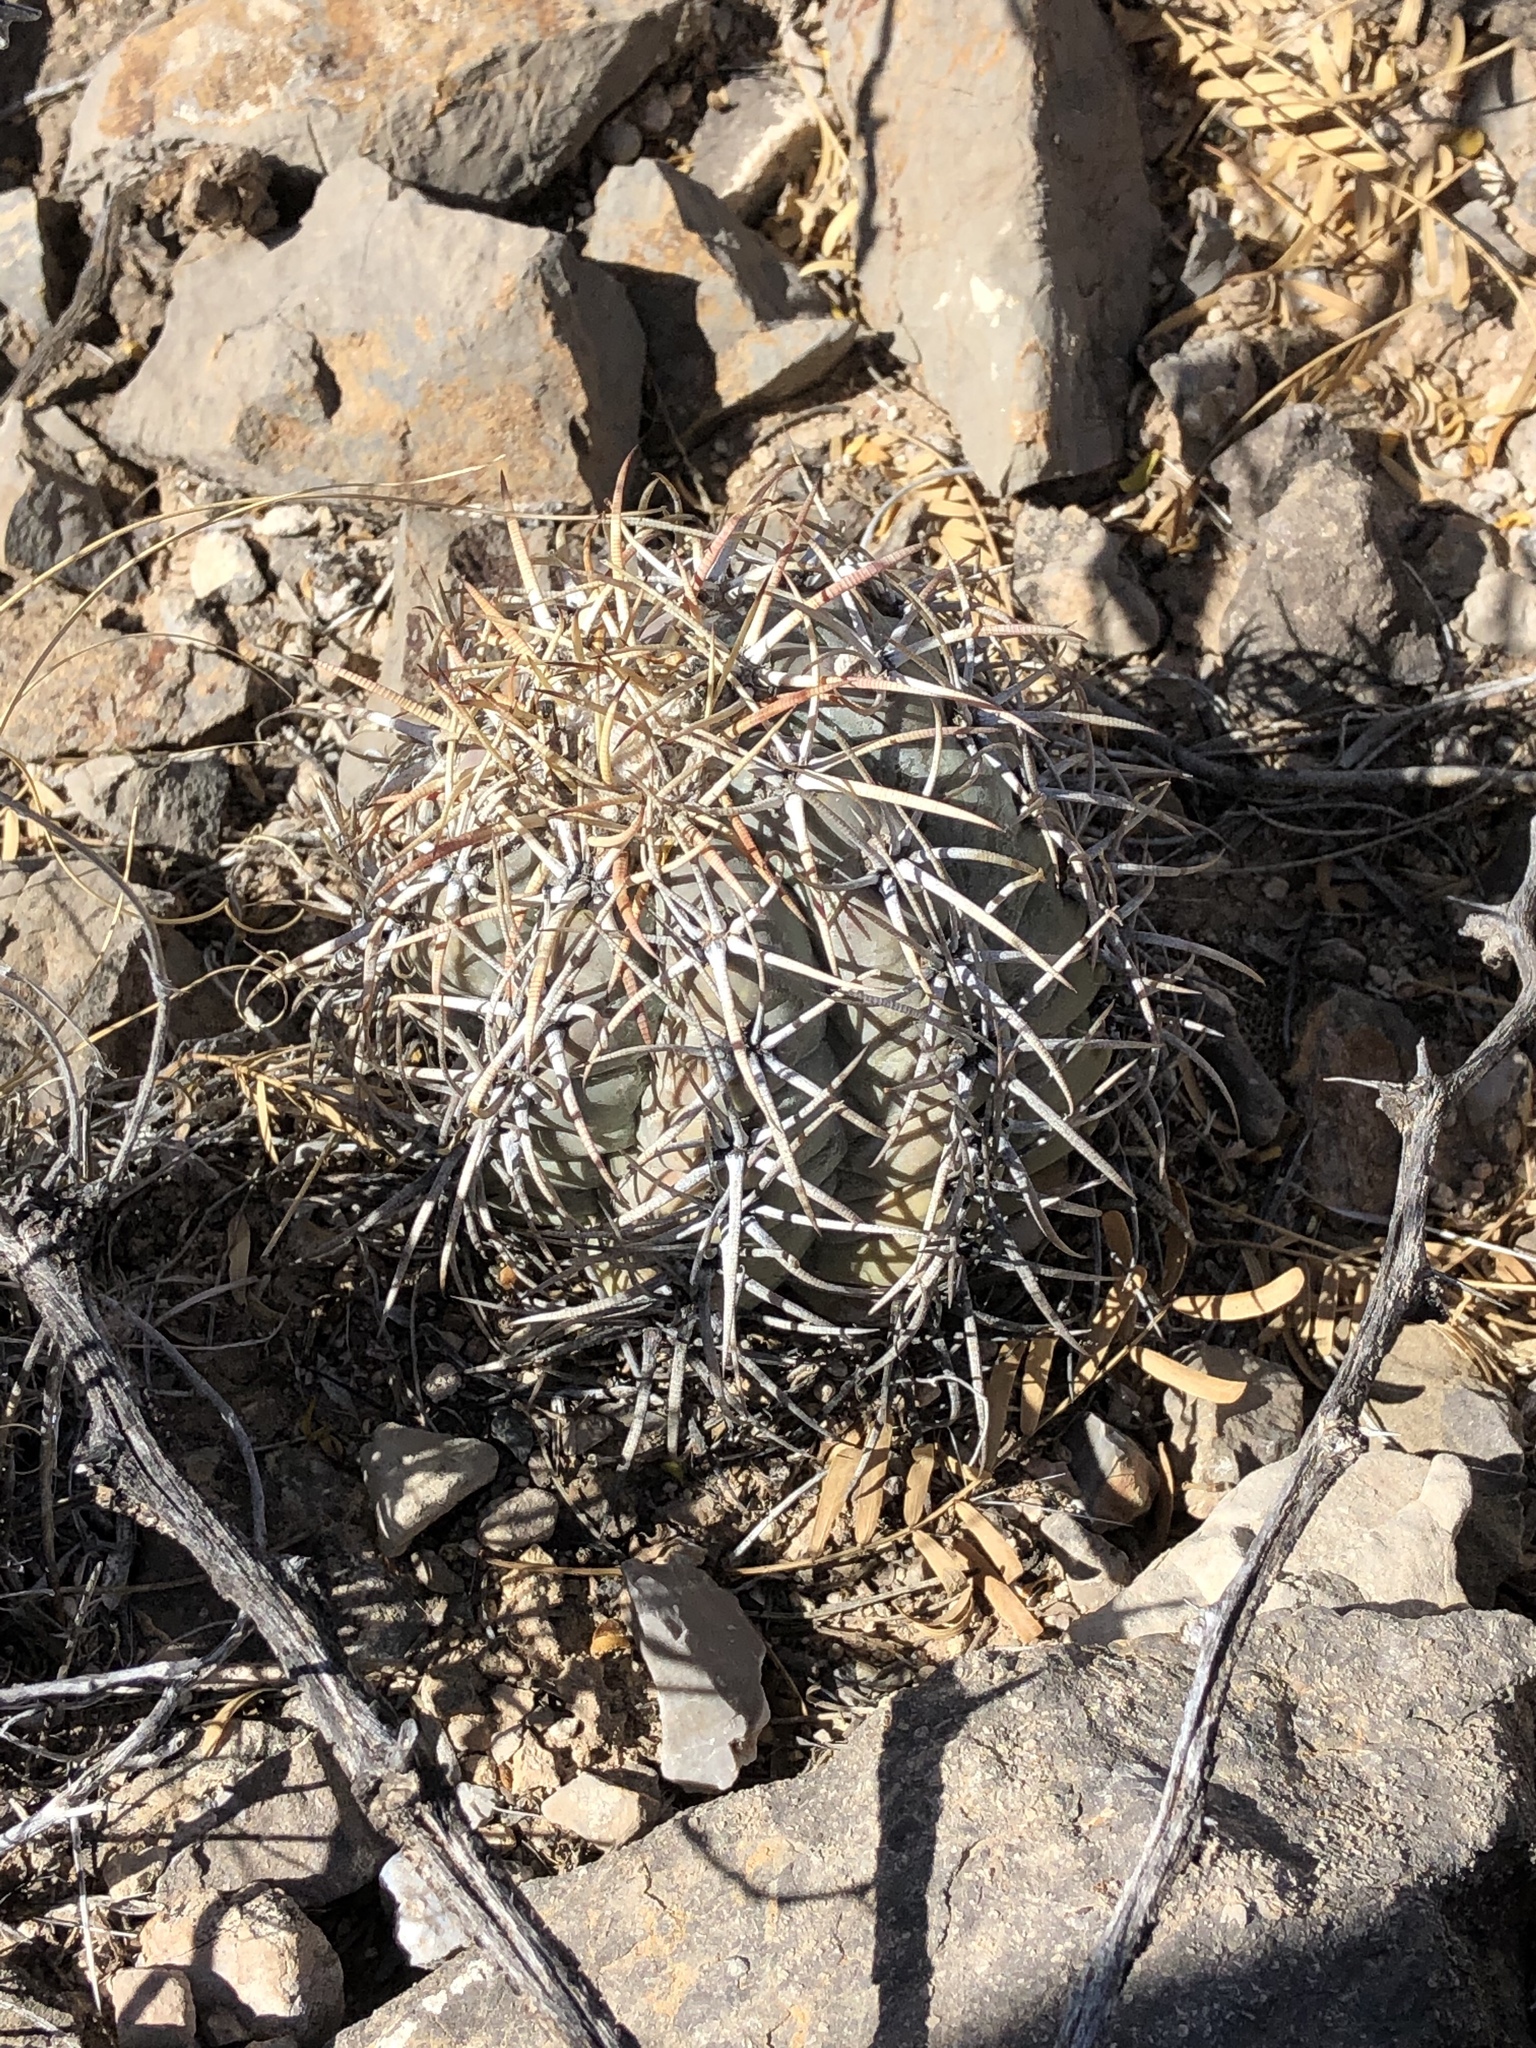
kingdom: Plantae
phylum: Tracheophyta
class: Magnoliopsida
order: Caryophyllales
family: Cactaceae
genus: Echinocactus
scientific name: Echinocactus horizonthalonius
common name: Devilshead
